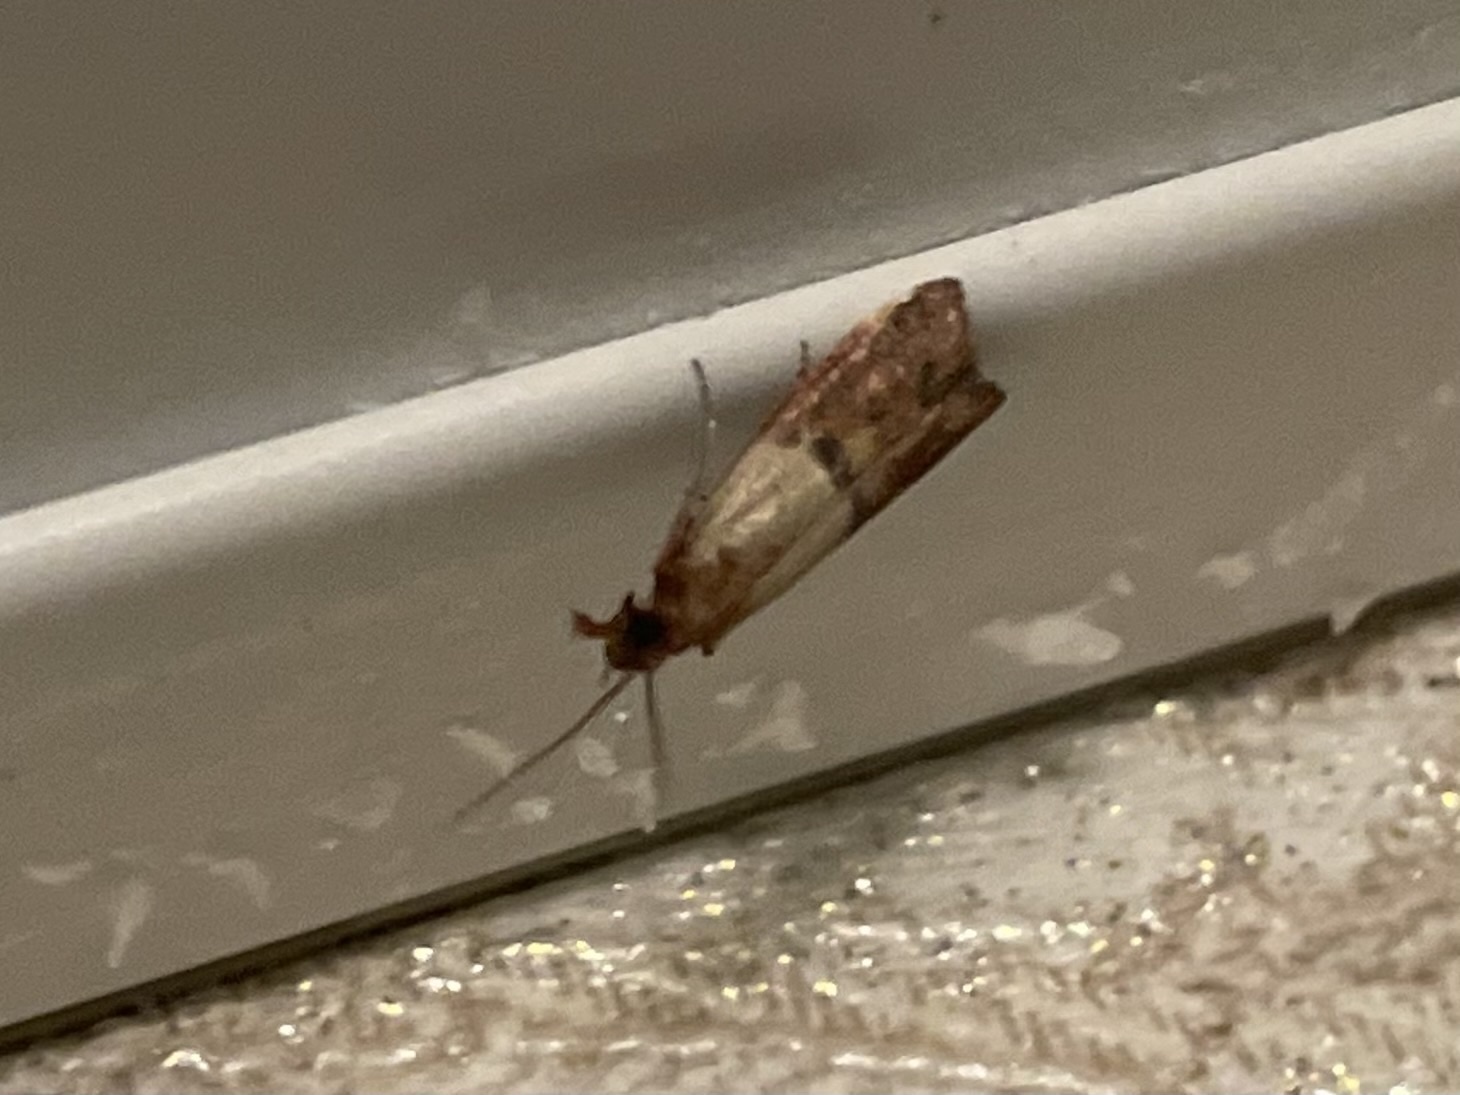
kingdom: Animalia
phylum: Arthropoda
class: Insecta
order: Lepidoptera
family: Pyralidae
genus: Plodia
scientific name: Plodia interpunctella
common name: Indian meal moth
